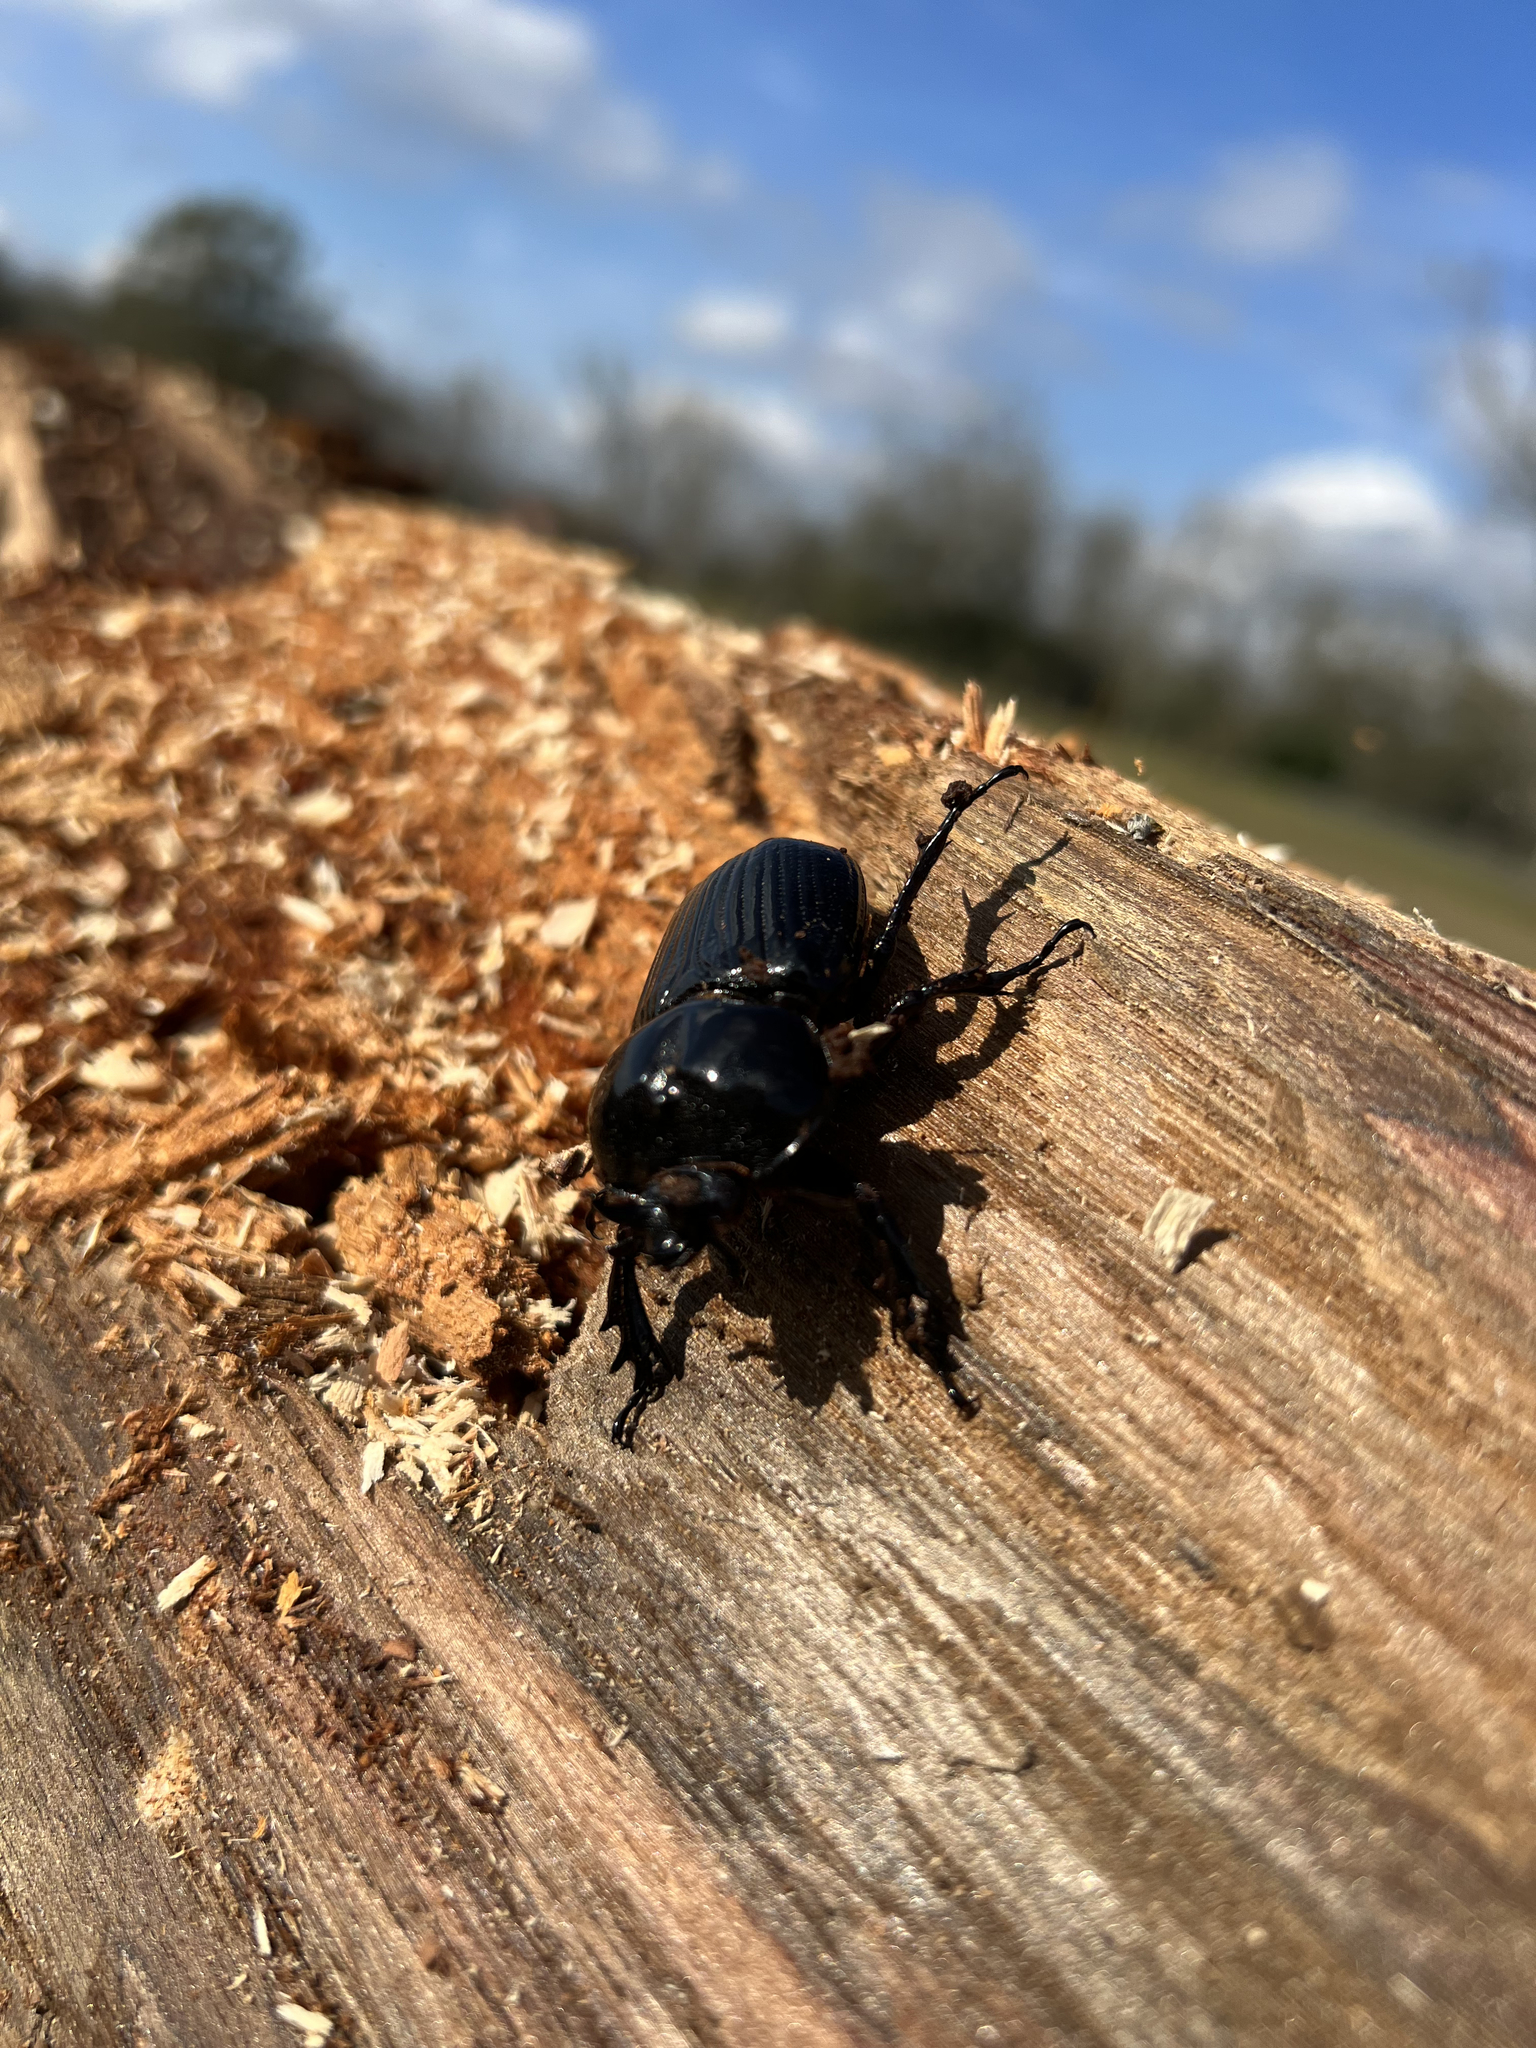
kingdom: Animalia
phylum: Arthropoda
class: Insecta
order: Coleoptera
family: Scarabaeidae
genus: Phileurus
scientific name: Phileurus truncatus
